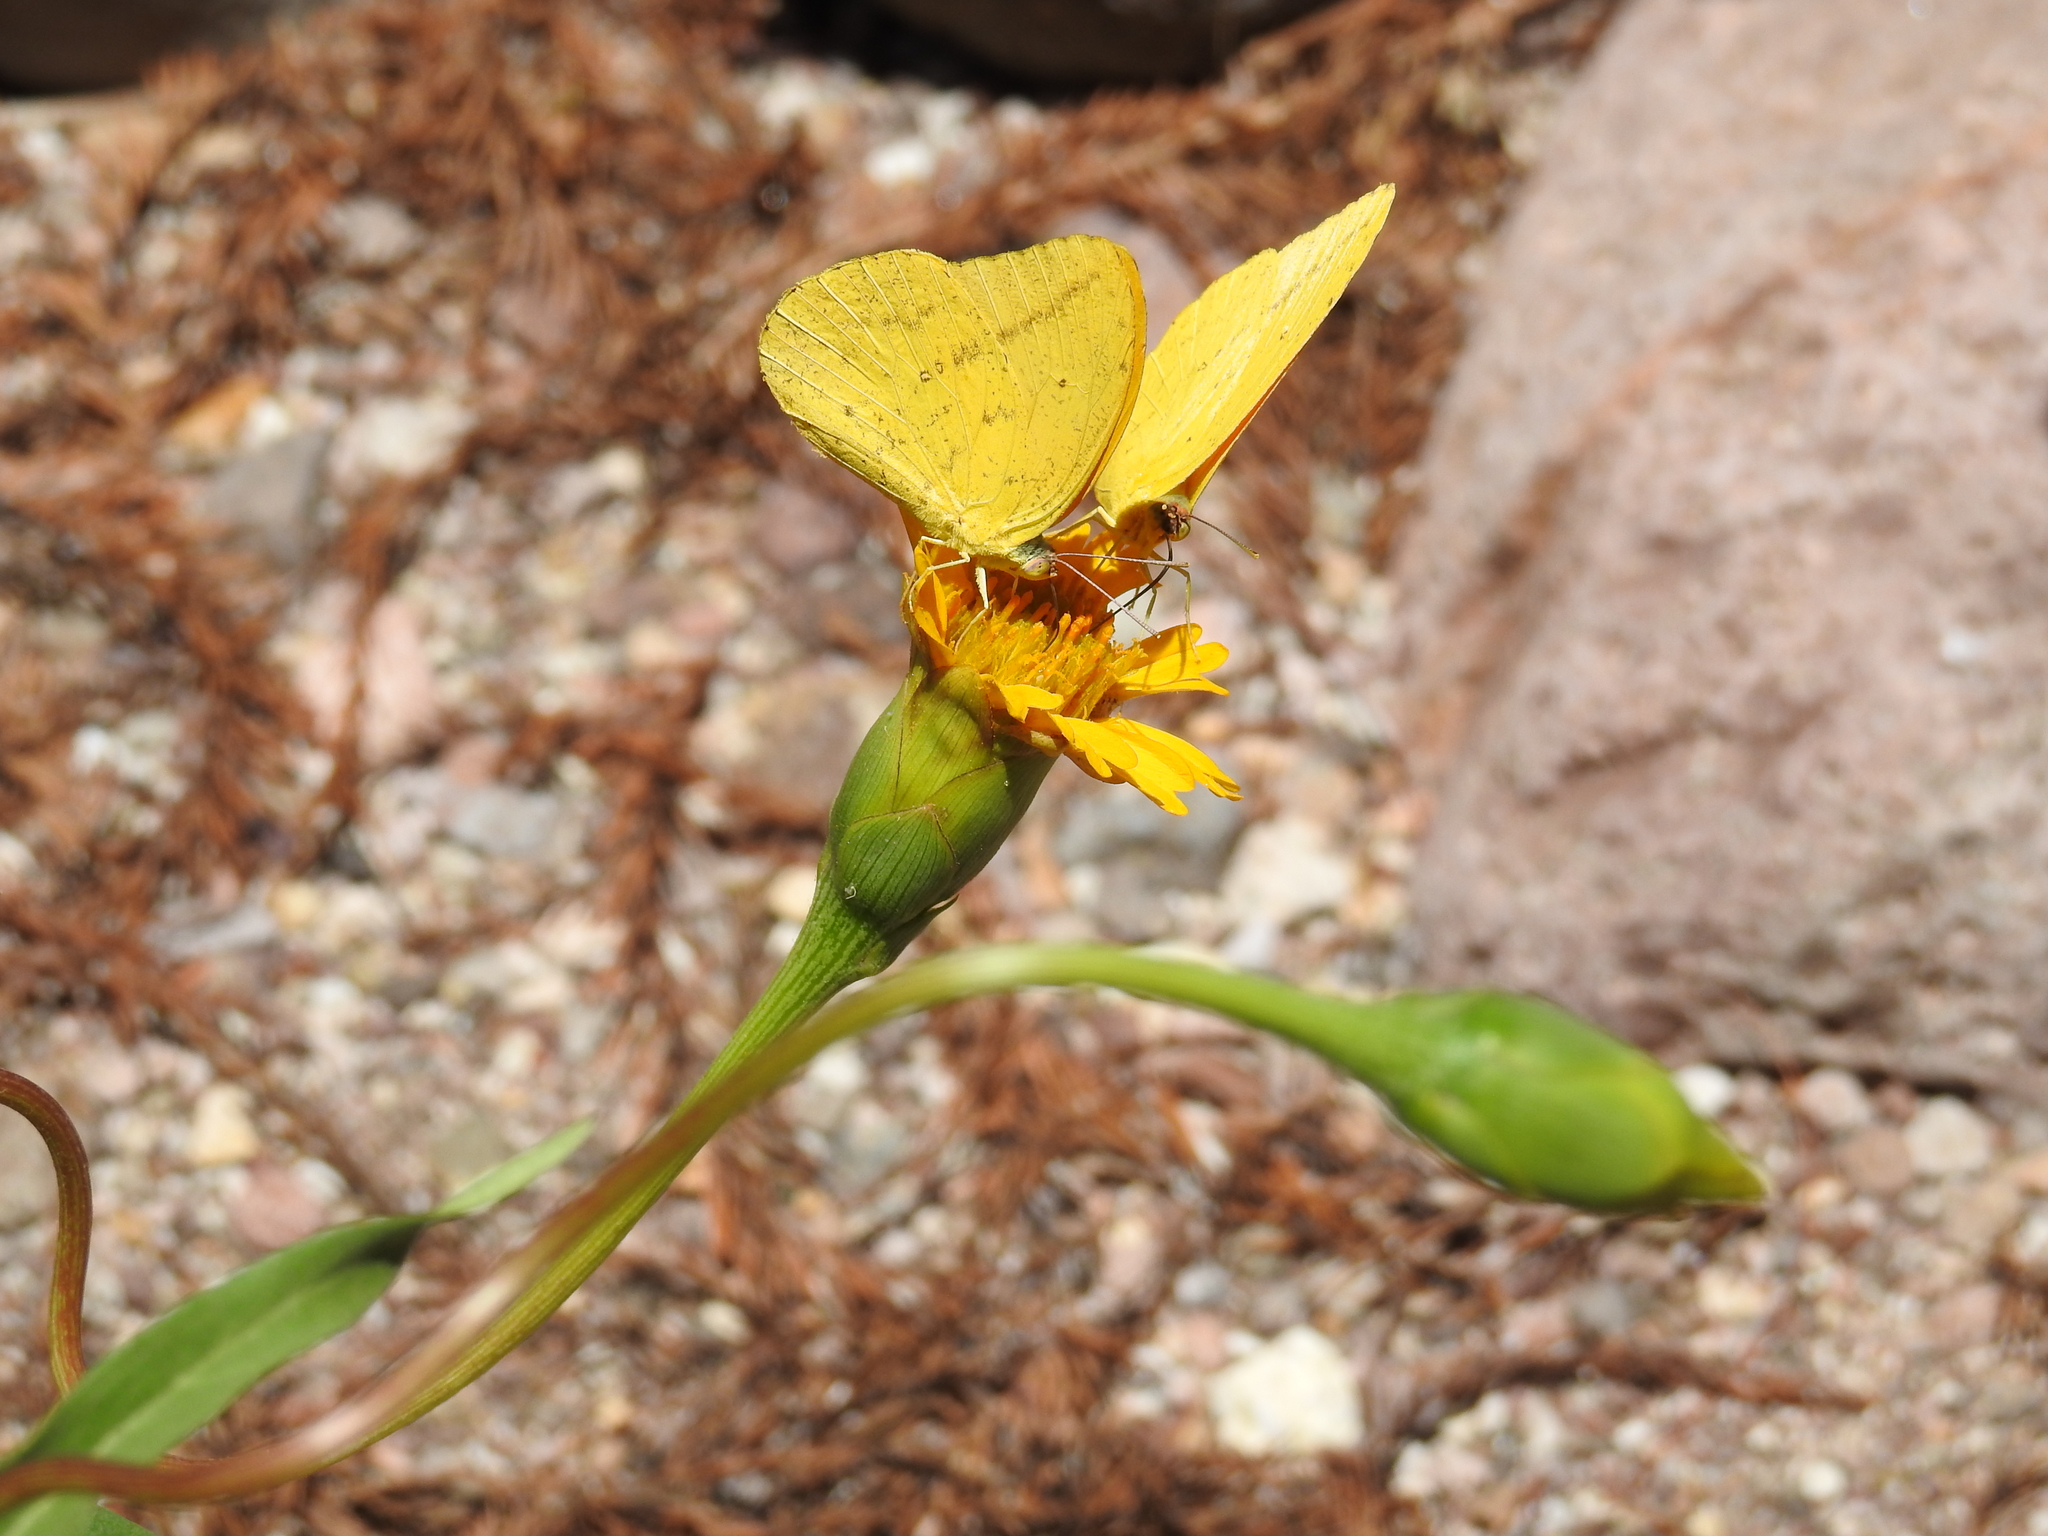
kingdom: Animalia
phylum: Arthropoda
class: Insecta
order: Lepidoptera
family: Pieridae
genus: Phoebis
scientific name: Phoebis agarithe
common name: Large orange sulphur
